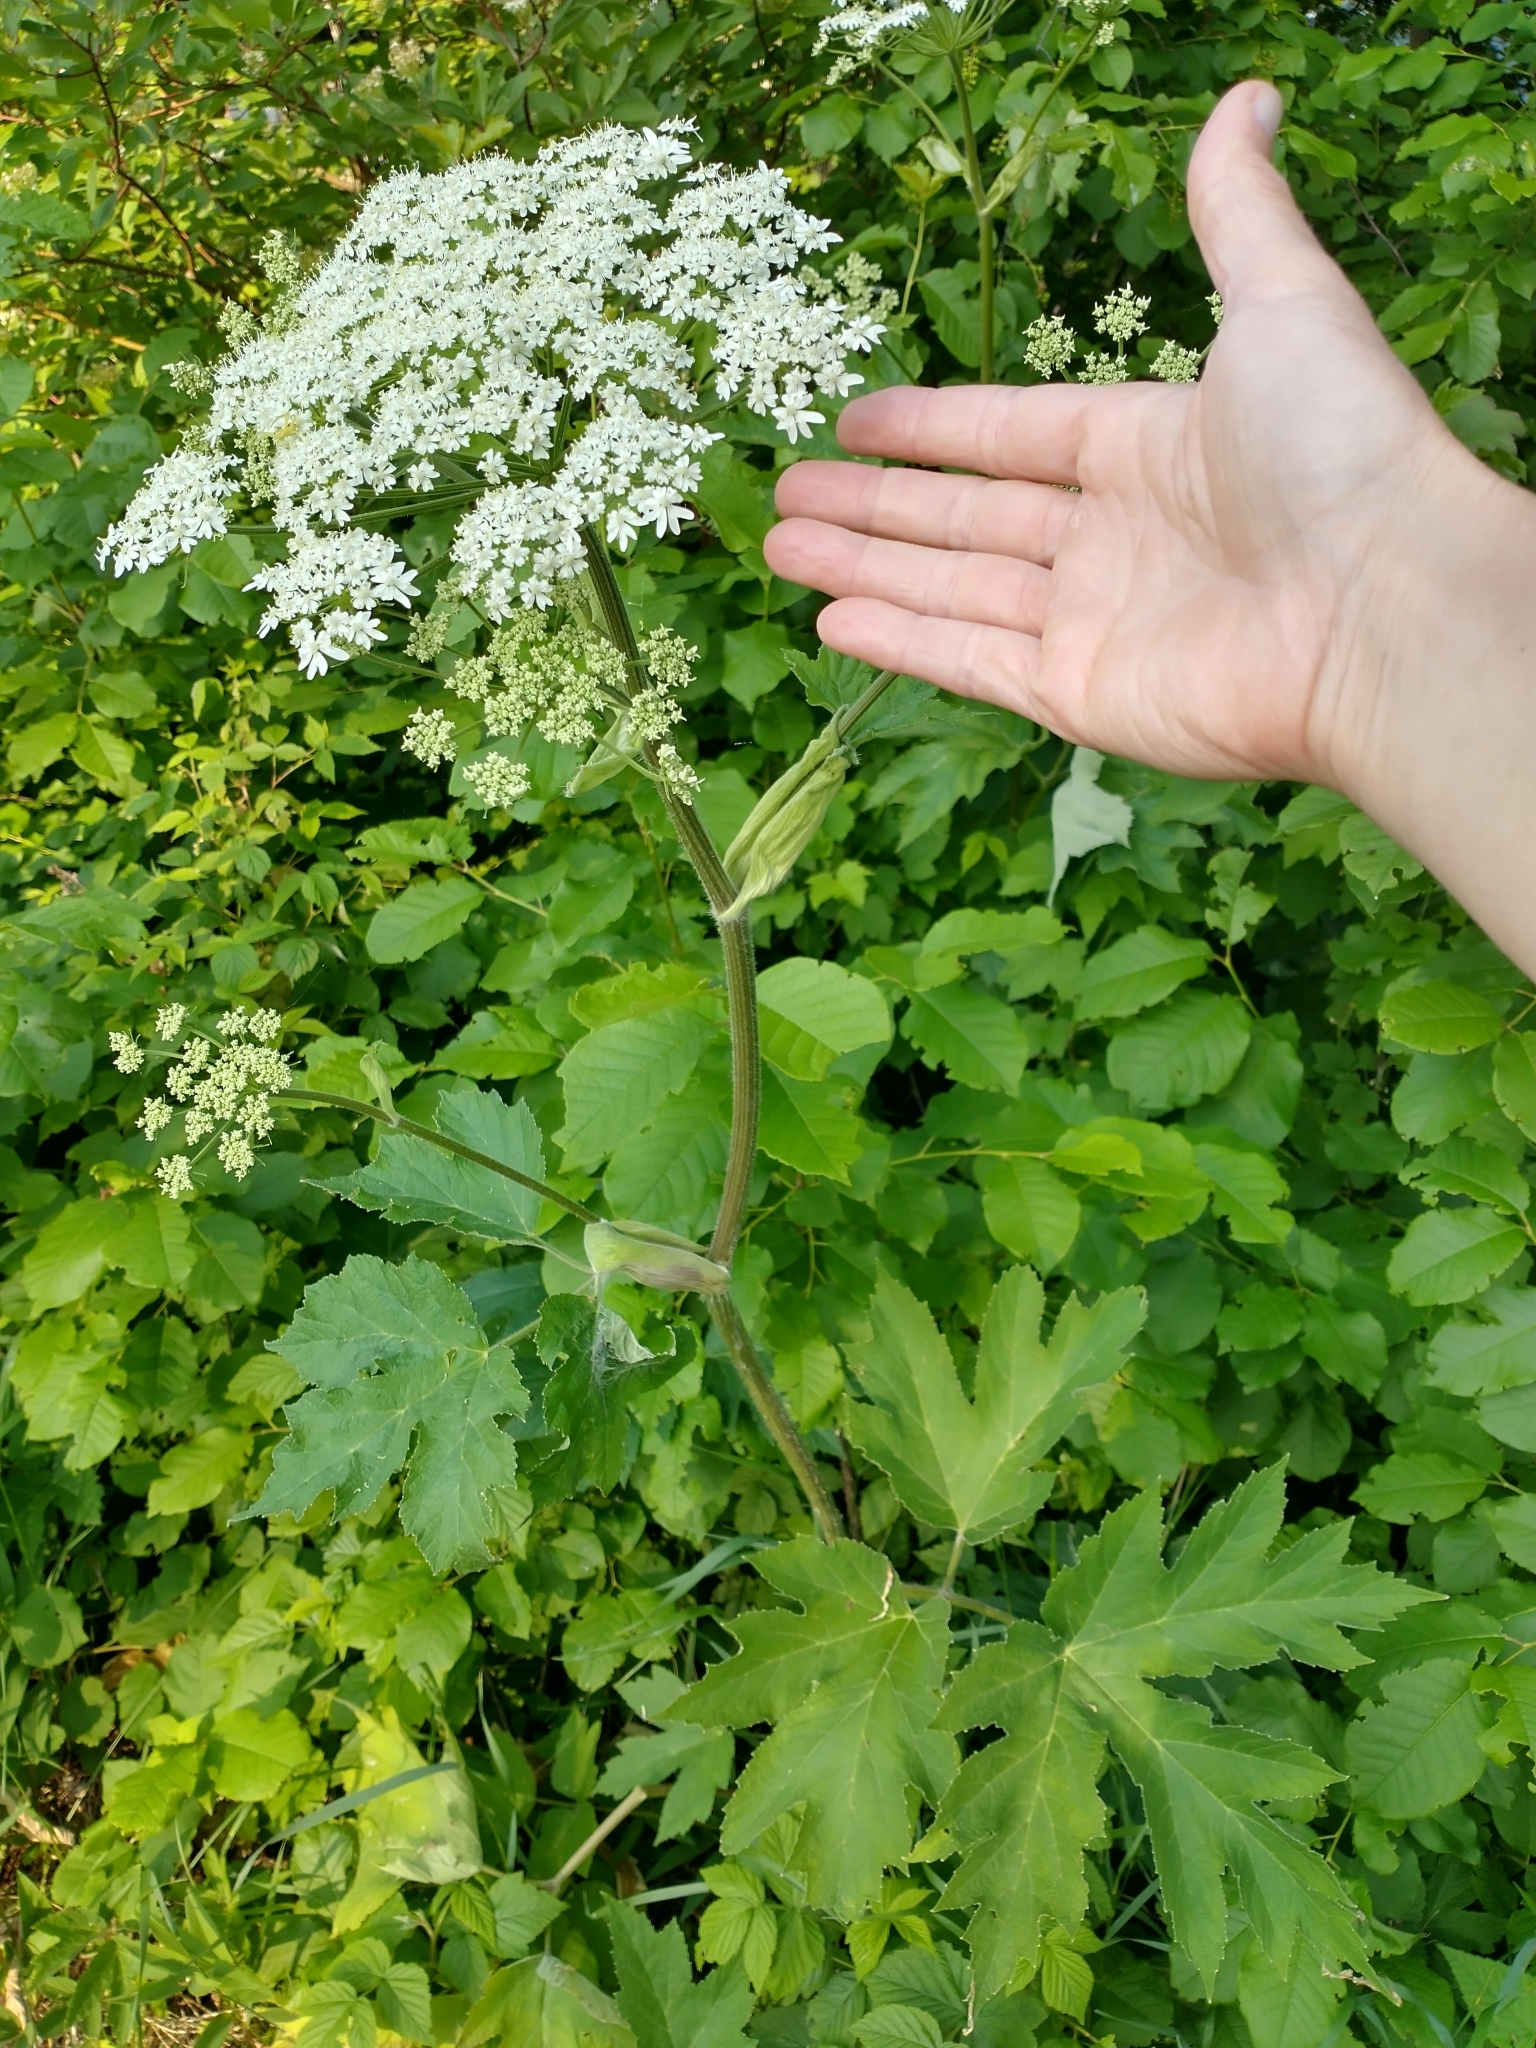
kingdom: Plantae
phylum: Tracheophyta
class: Magnoliopsida
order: Apiales
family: Apiaceae
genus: Heracleum
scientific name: Heracleum maximum
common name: American cow parsnip
